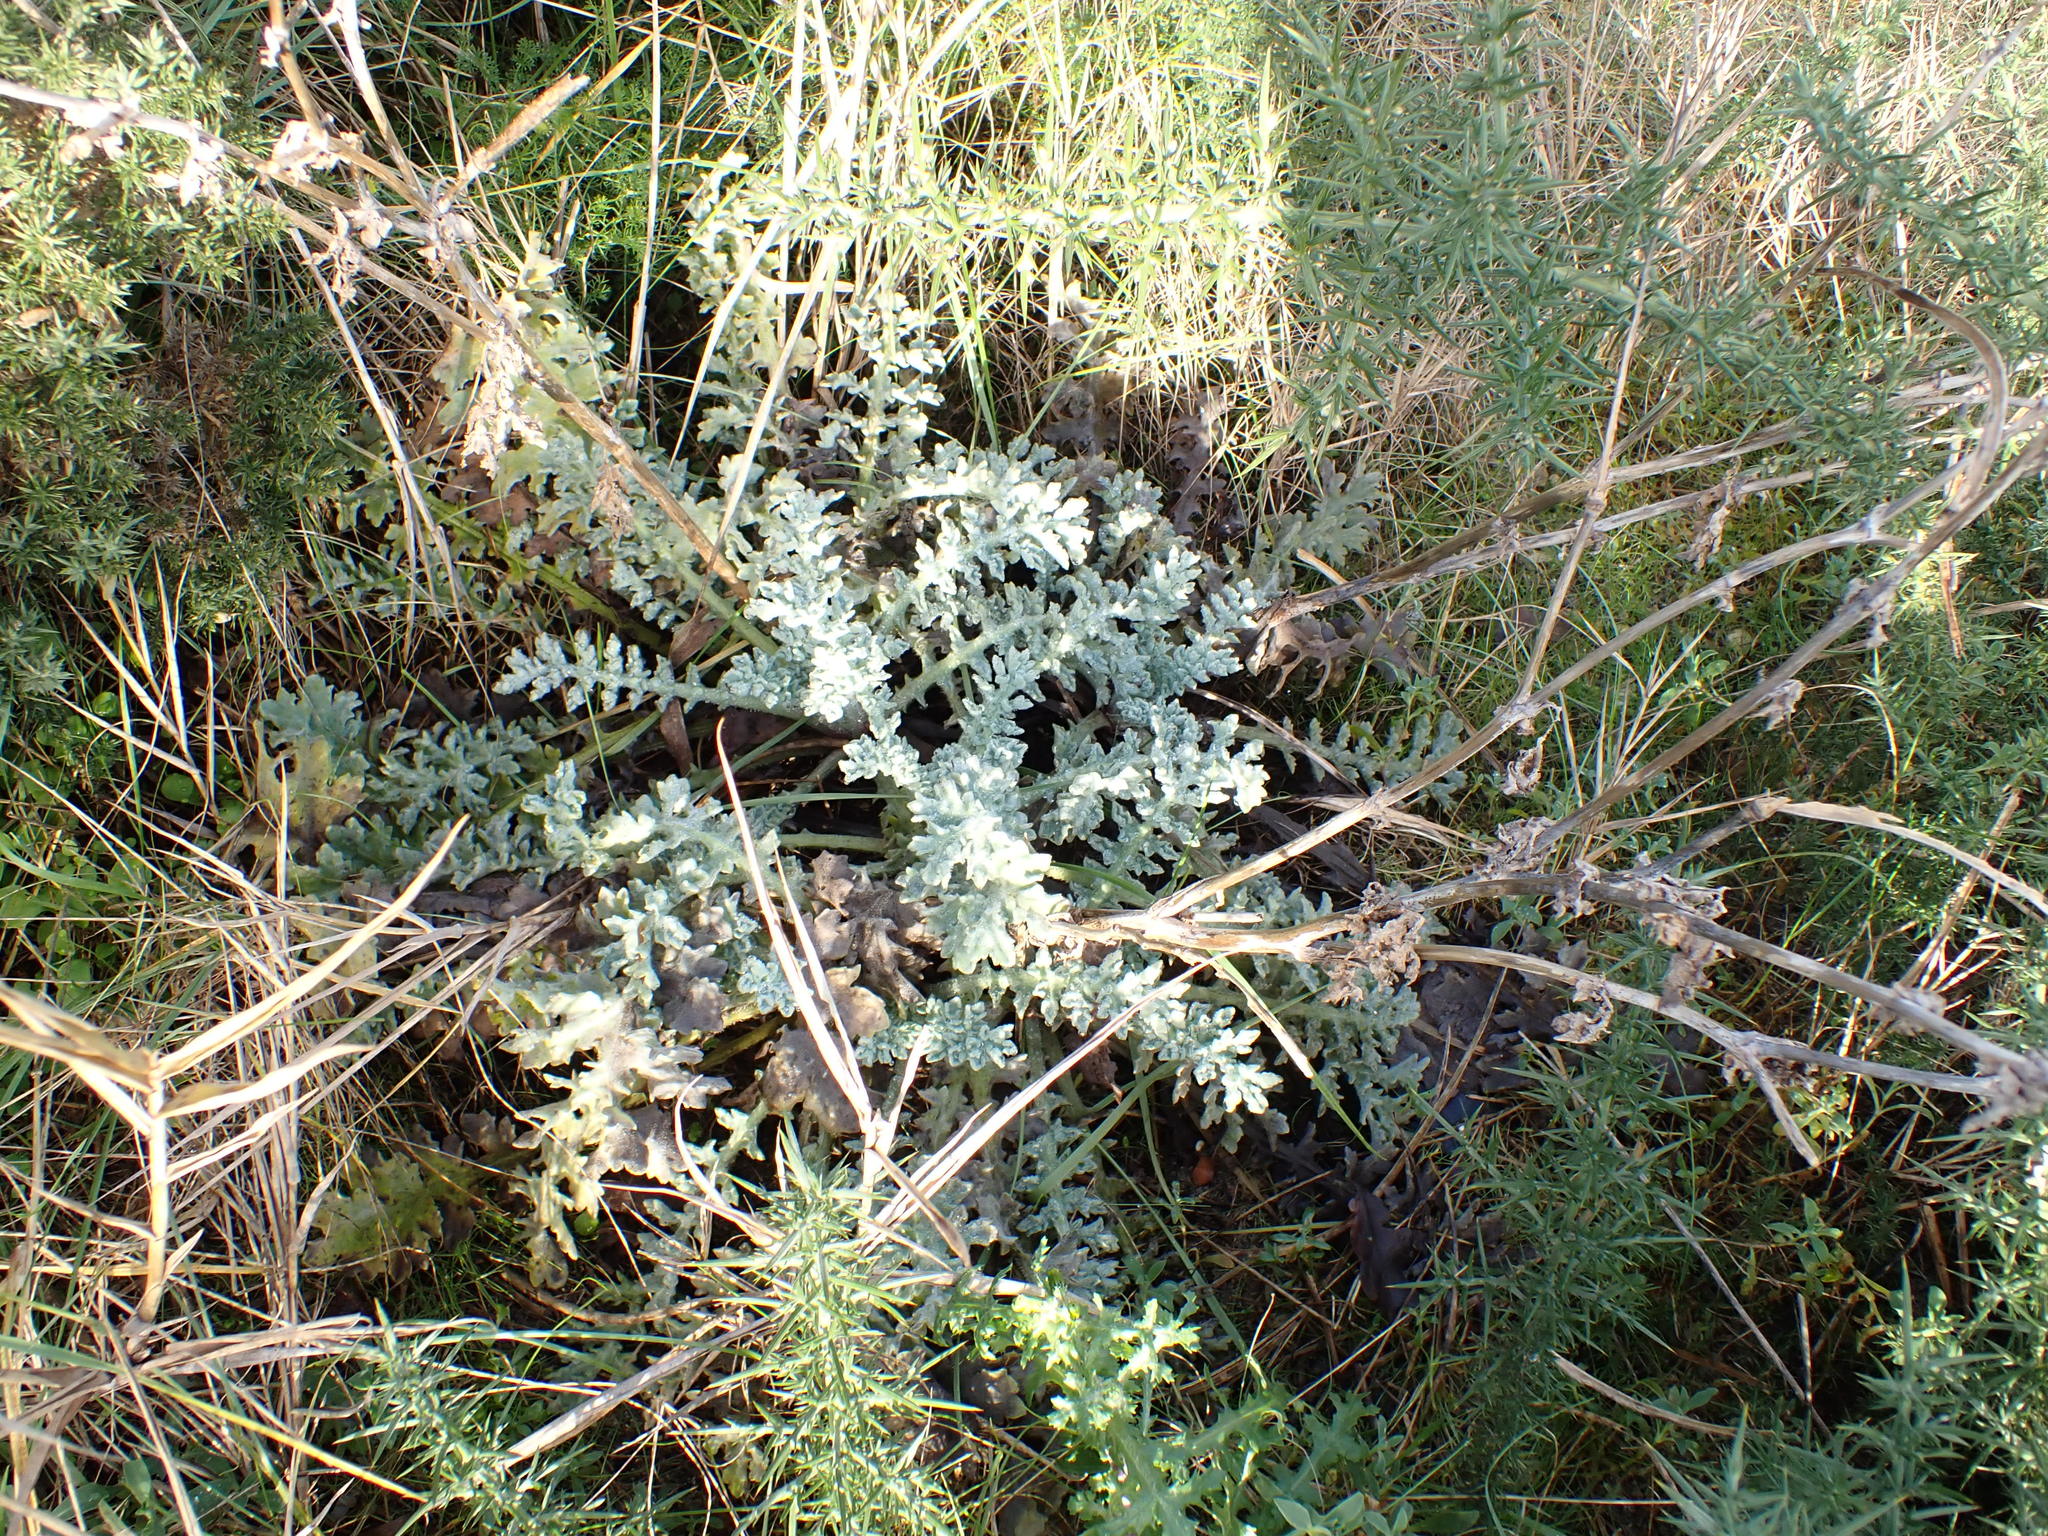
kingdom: Plantae
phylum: Tracheophyta
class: Magnoliopsida
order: Ranunculales
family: Papaveraceae
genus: Glaucium
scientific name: Glaucium flavum
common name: Yellow horned-poppy
